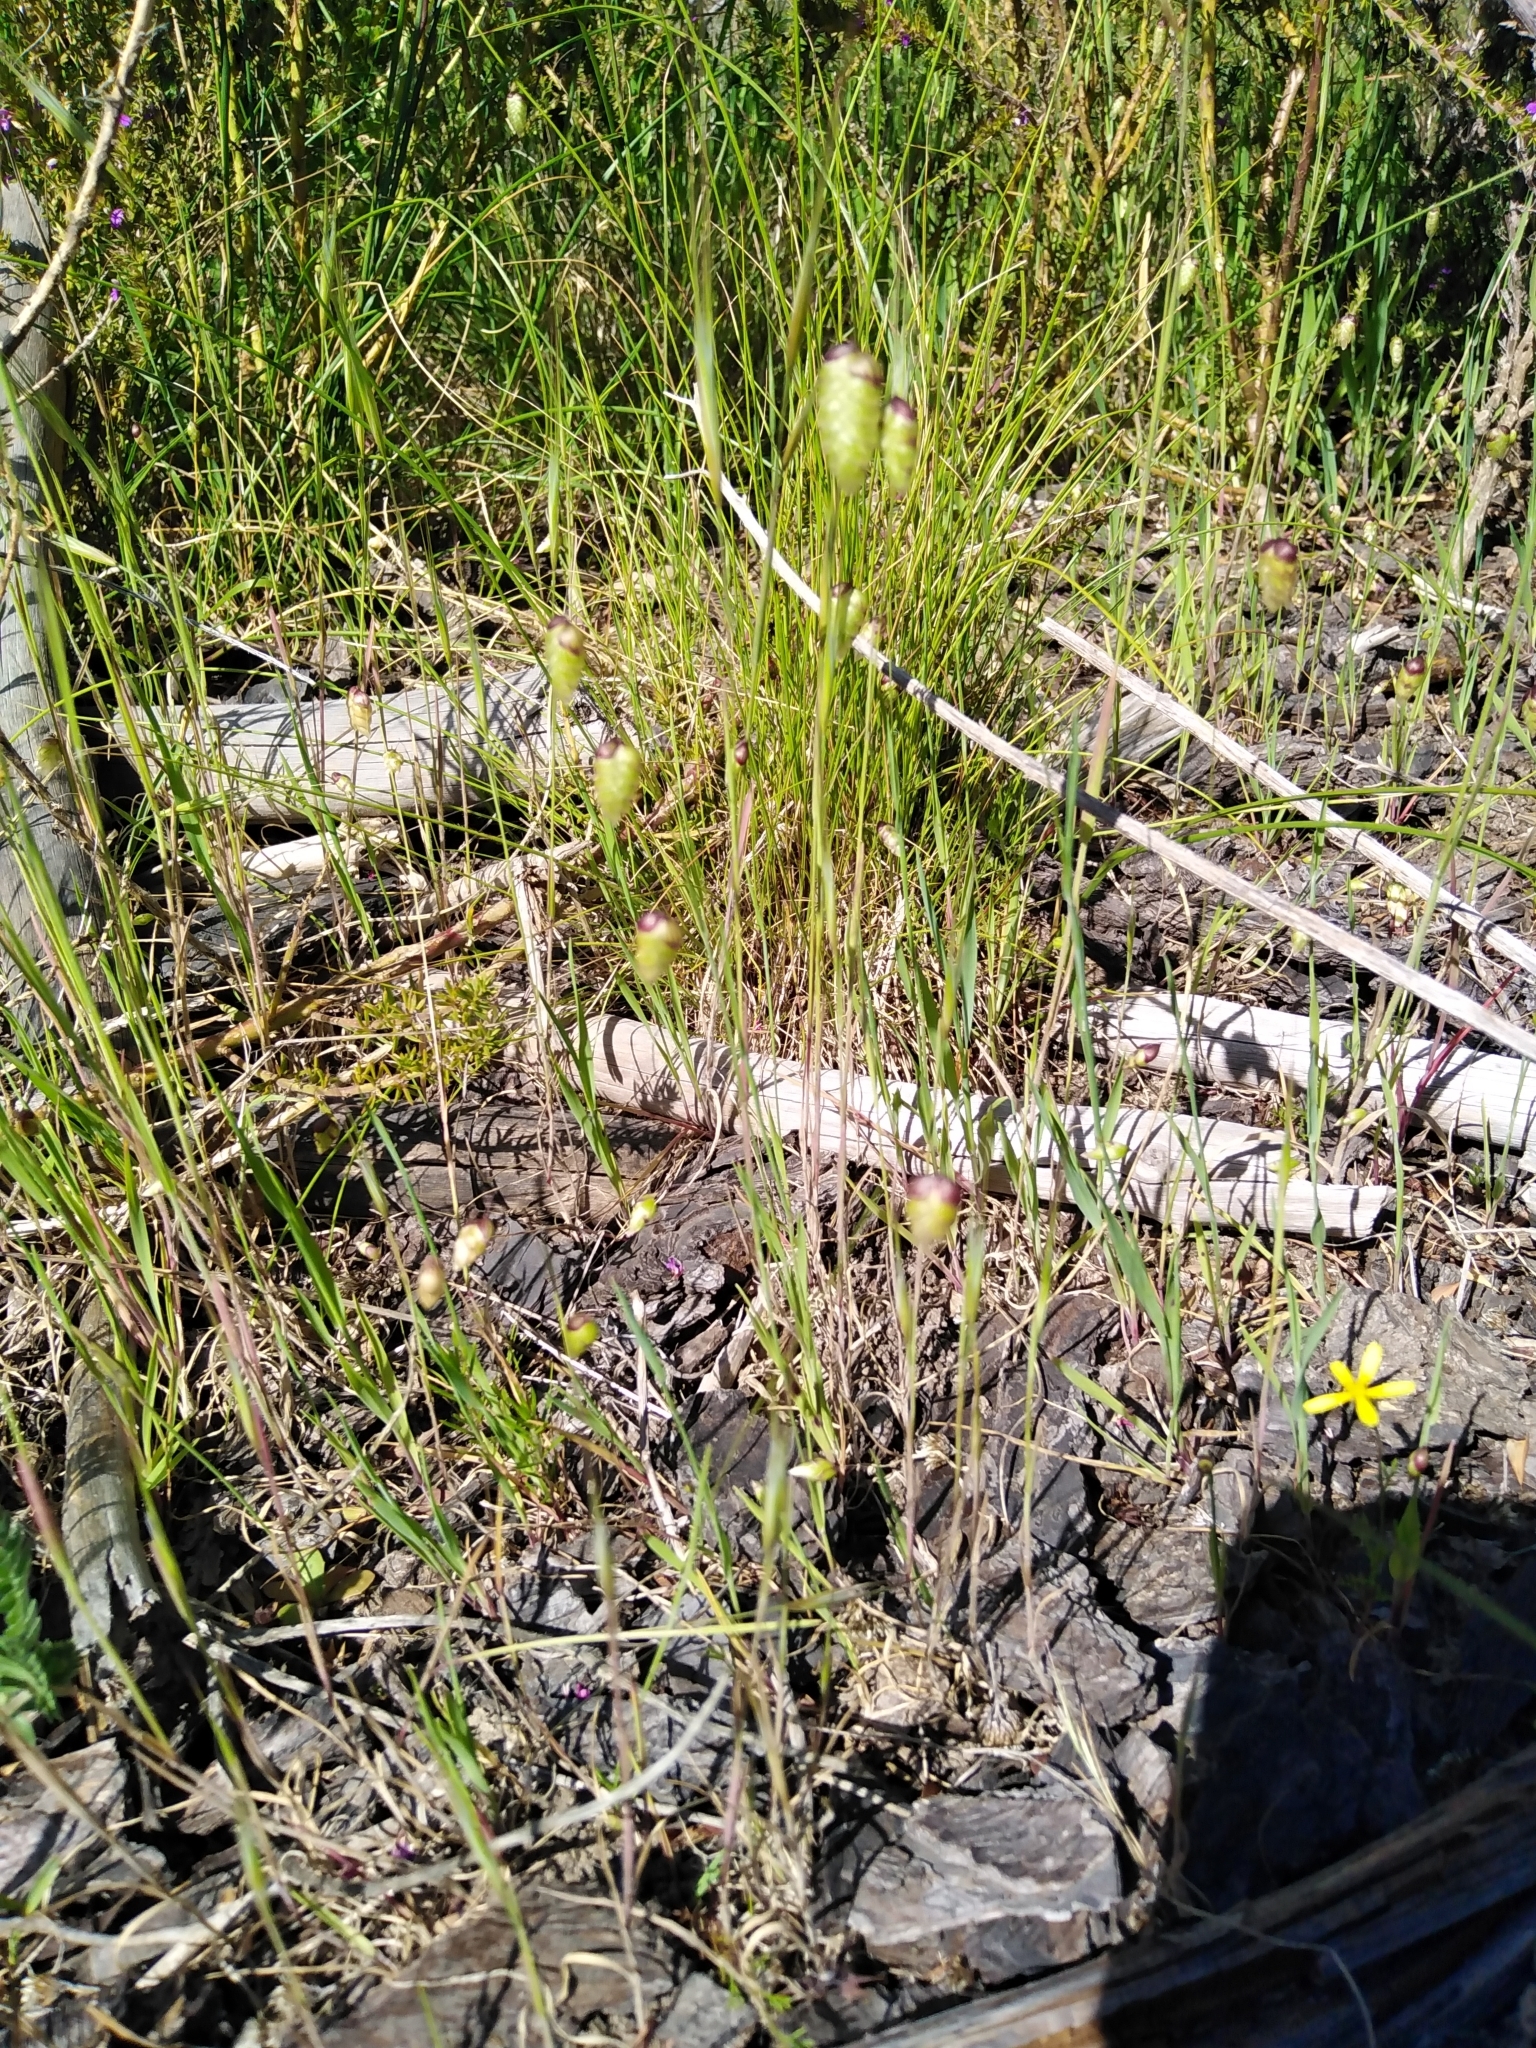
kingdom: Plantae
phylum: Tracheophyta
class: Liliopsida
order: Poales
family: Poaceae
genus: Briza
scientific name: Briza maxima
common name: Big quakinggrass
